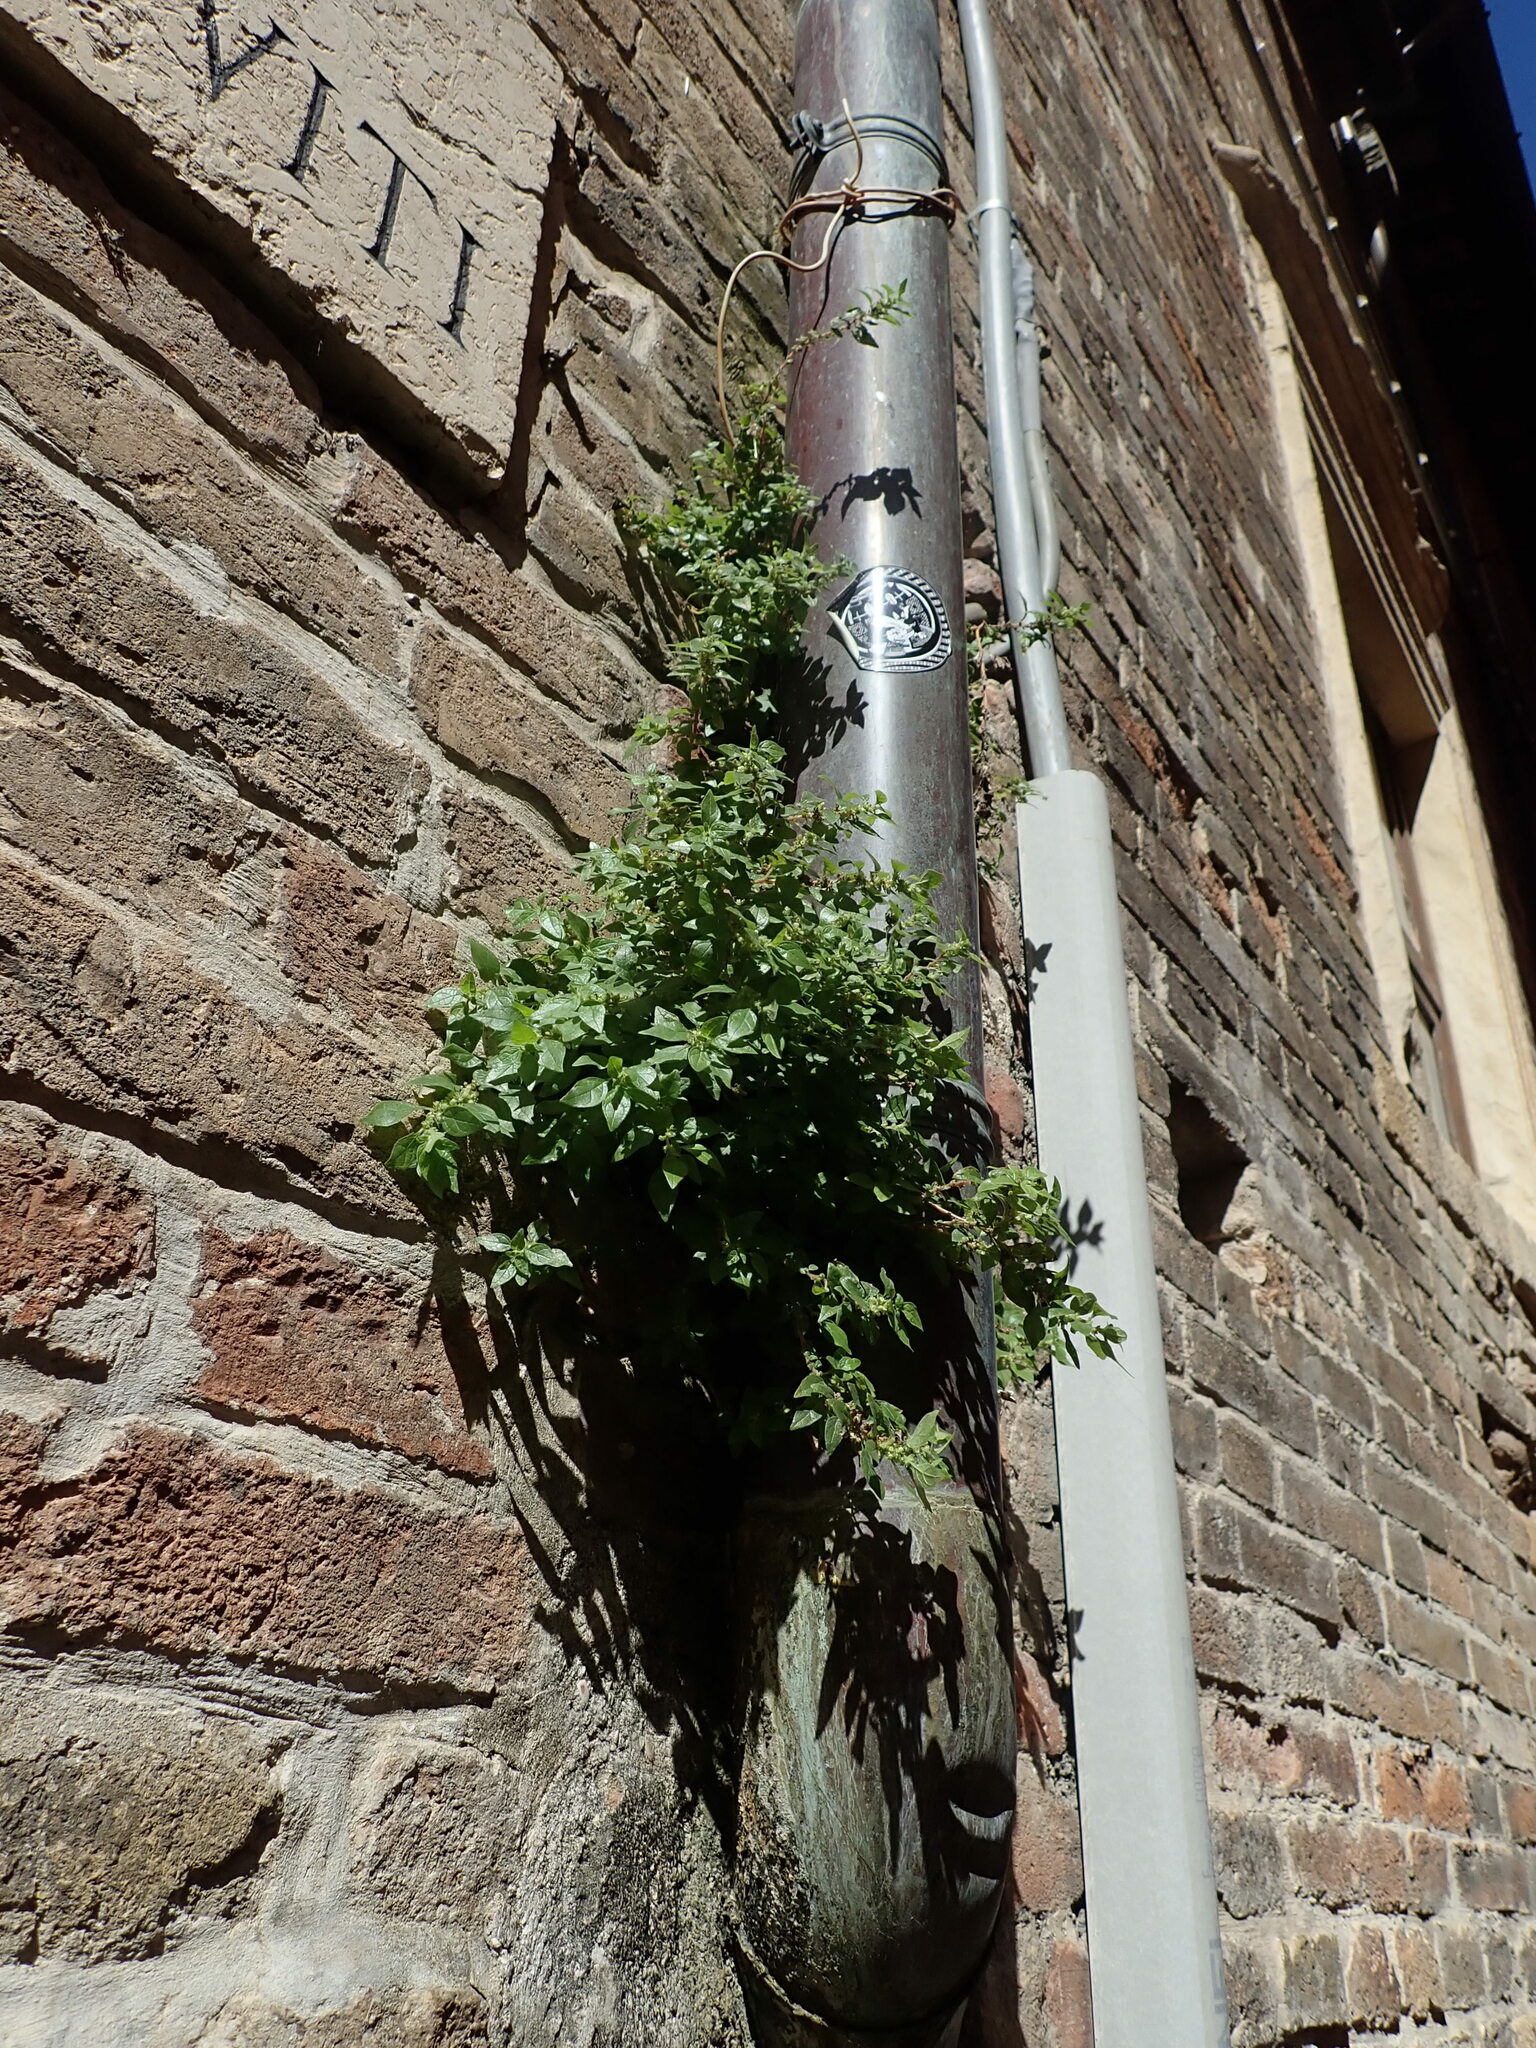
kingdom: Plantae
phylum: Tracheophyta
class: Magnoliopsida
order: Rosales
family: Urticaceae
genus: Parietaria
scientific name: Parietaria judaica
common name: Pellitory-of-the-wall
